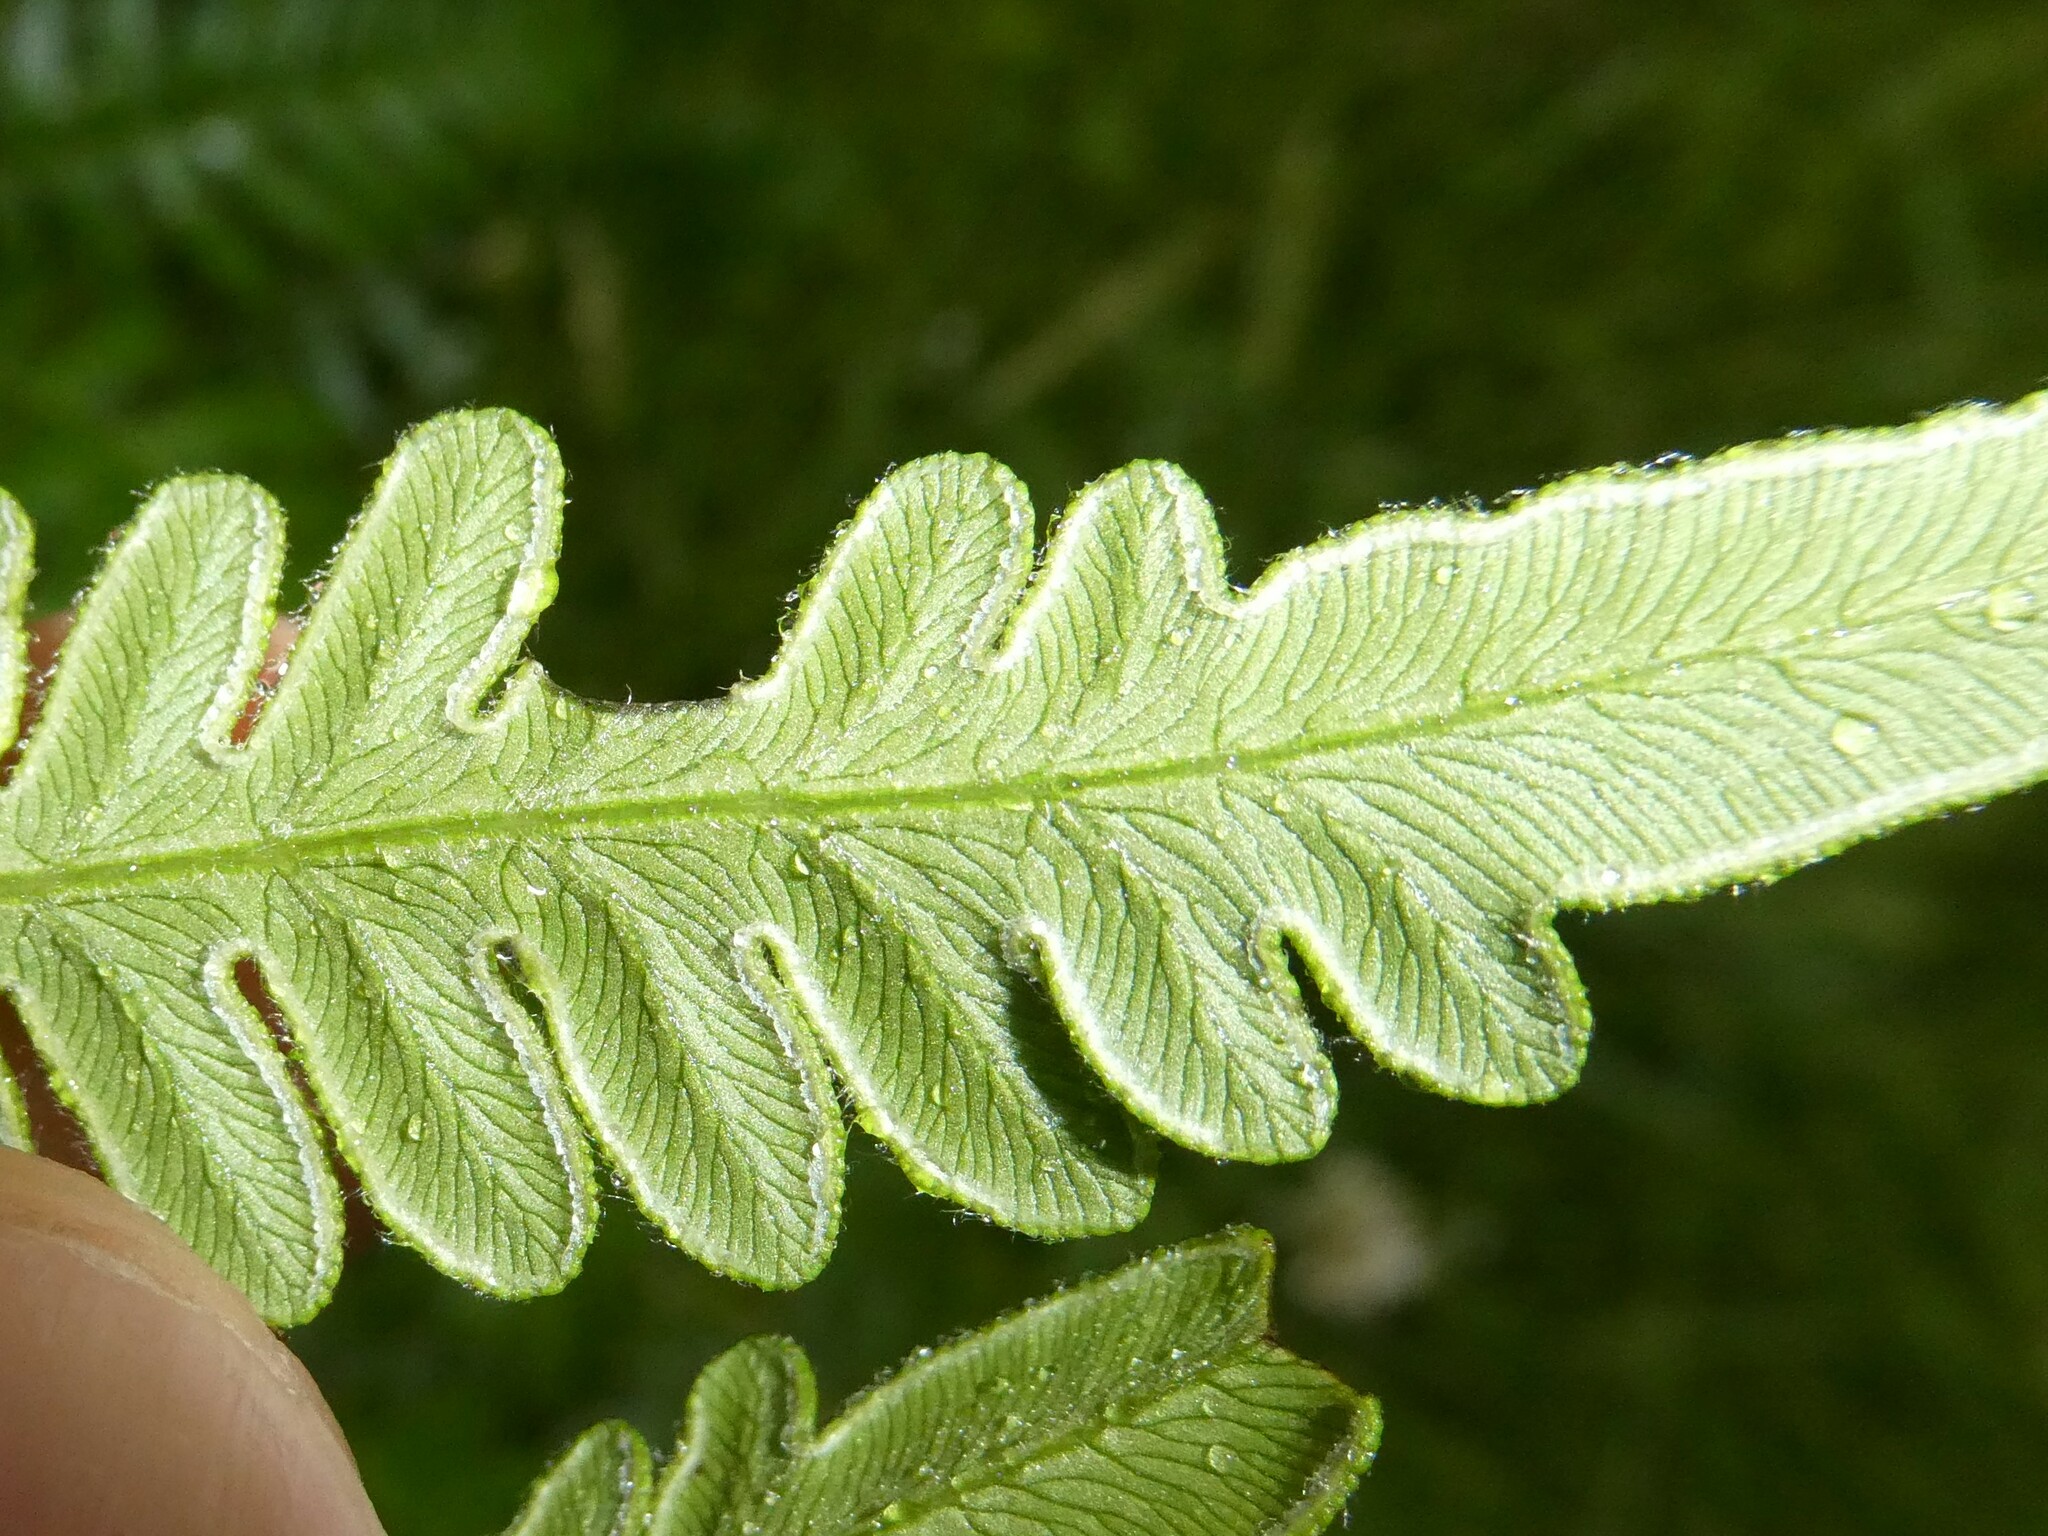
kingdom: Plantae
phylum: Tracheophyta
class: Polypodiopsida
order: Polypodiales
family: Dennstaedtiaceae
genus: Pteridium
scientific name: Pteridium aquilinum
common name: Bracken
